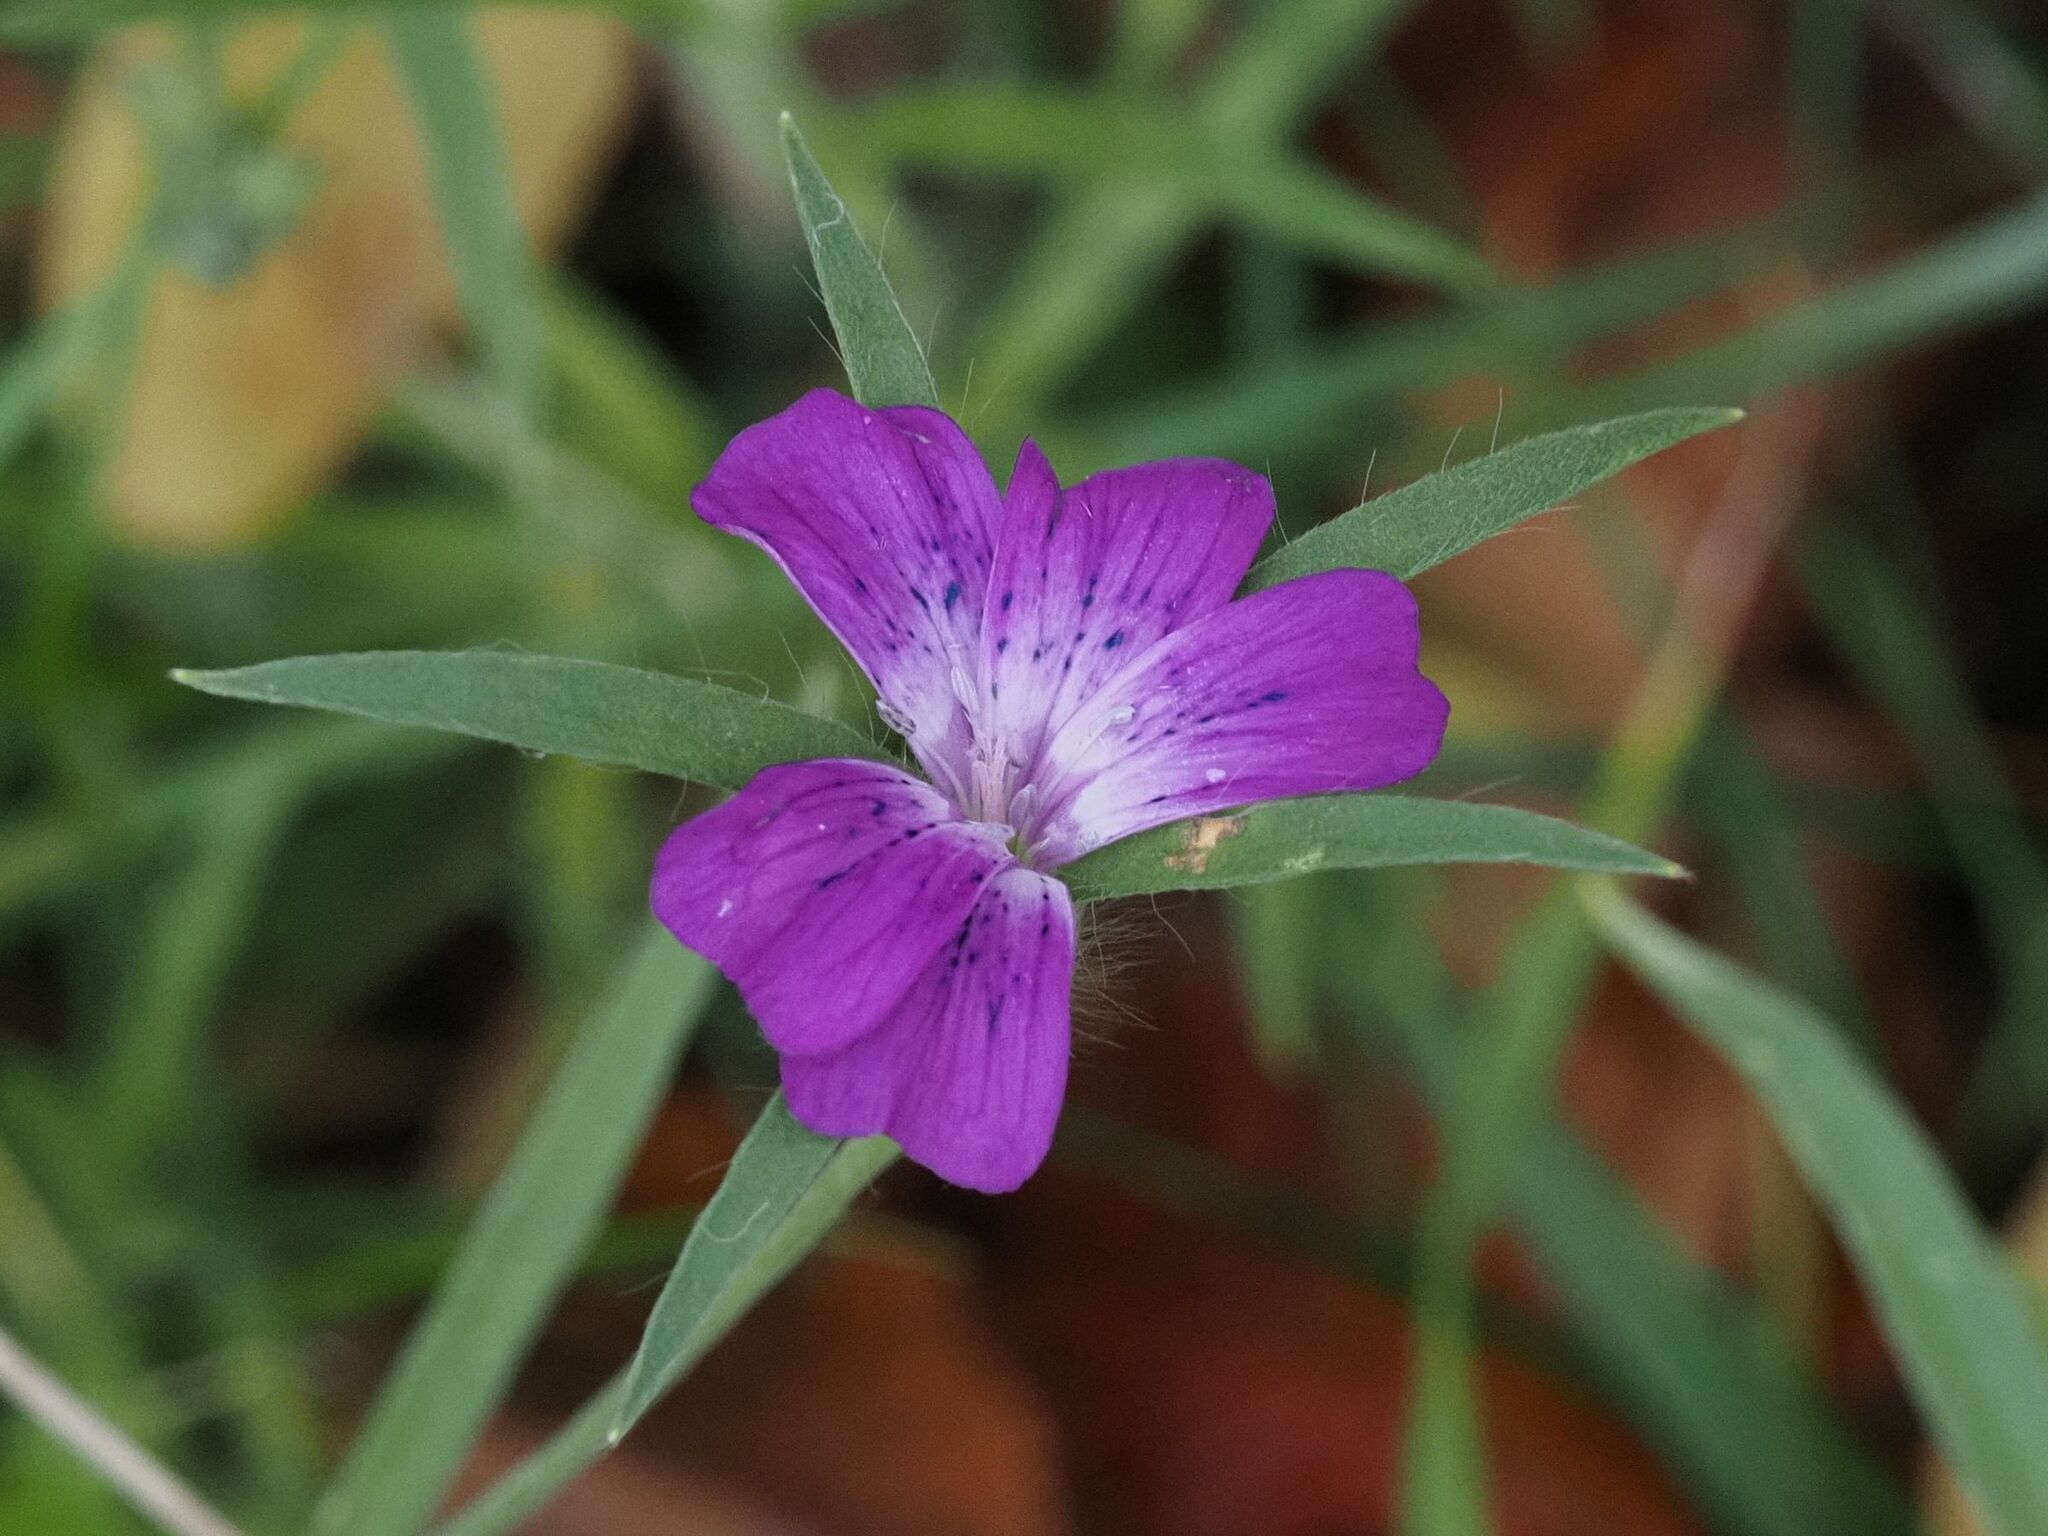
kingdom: Plantae
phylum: Tracheophyta
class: Magnoliopsida
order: Caryophyllales
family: Caryophyllaceae
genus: Agrostemma
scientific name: Agrostemma githago
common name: Common corncockle
